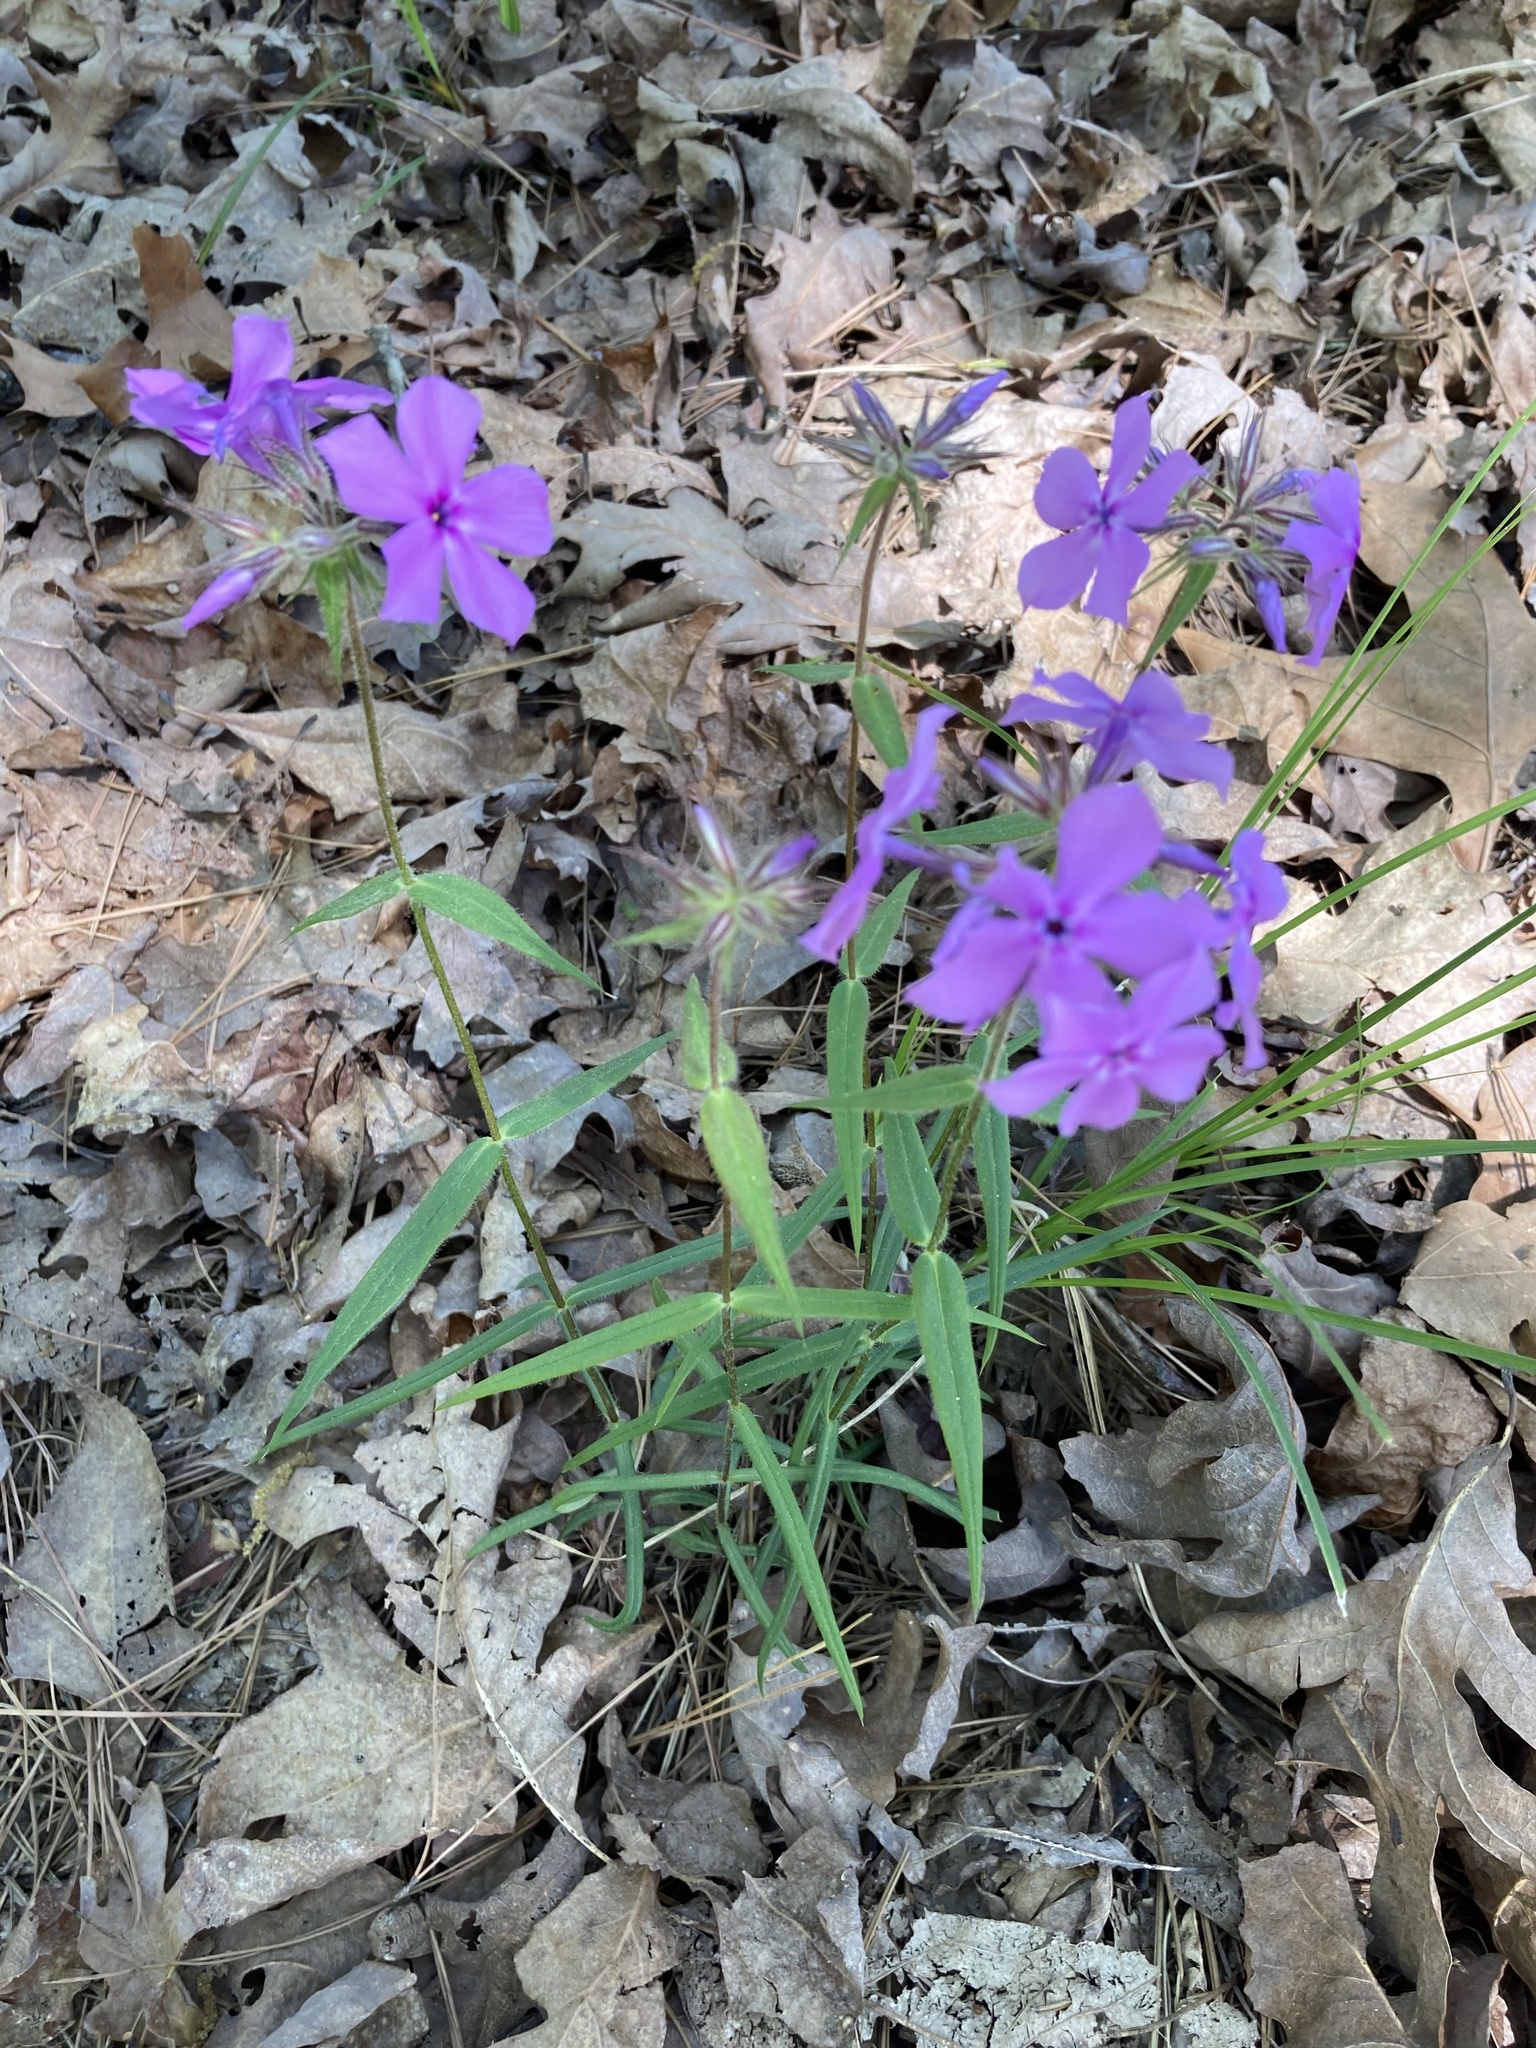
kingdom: Plantae
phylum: Tracheophyta
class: Magnoliopsida
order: Ericales
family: Polemoniaceae
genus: Phlox
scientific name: Phlox pilosa
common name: Prairie phlox
